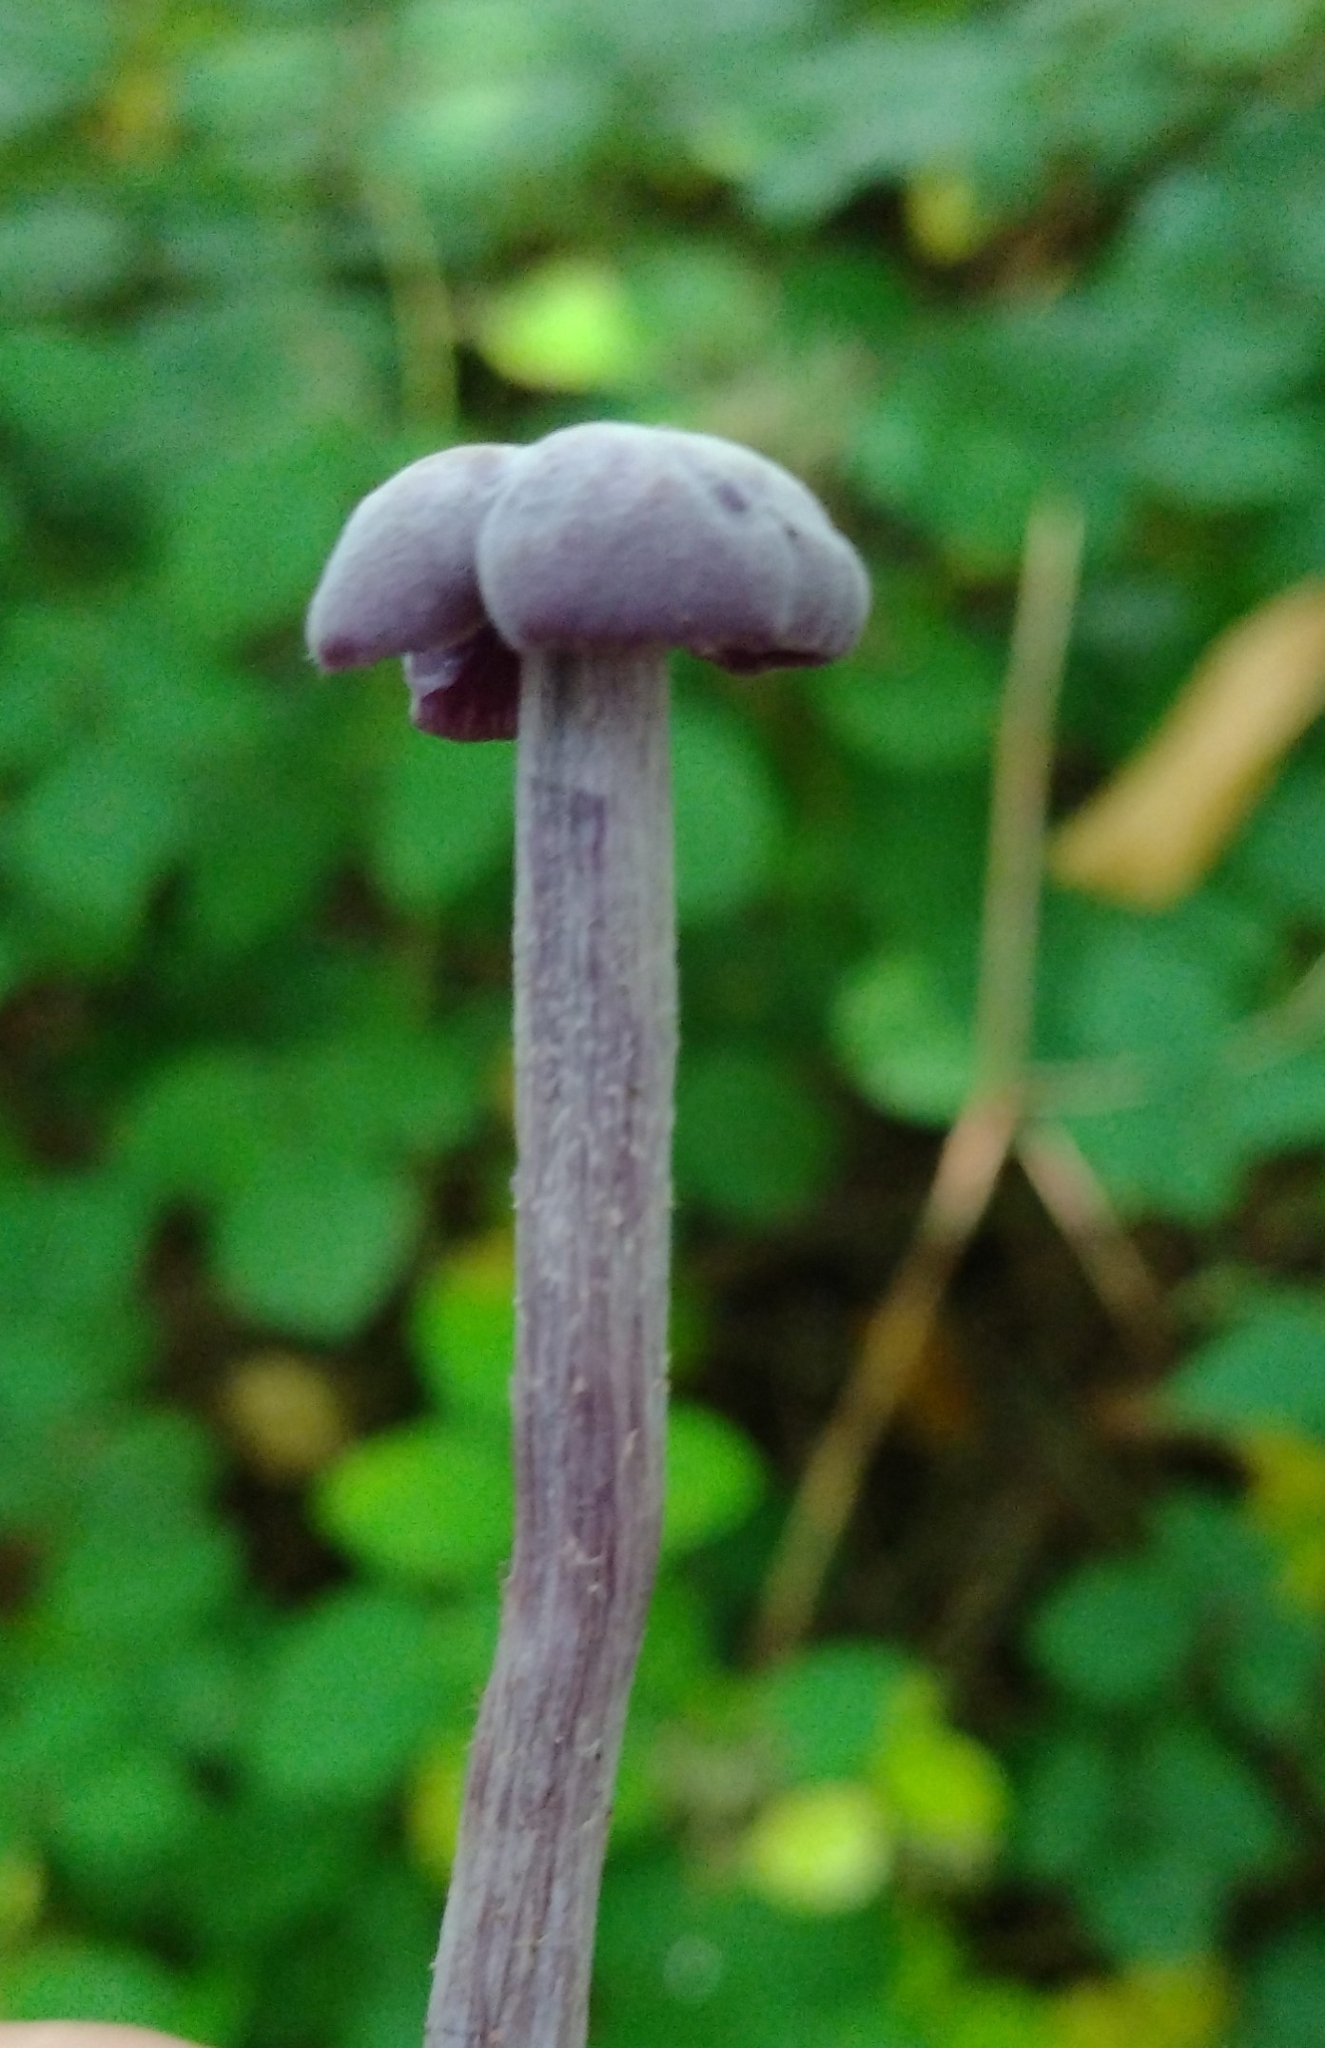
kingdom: Fungi
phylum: Basidiomycota
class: Agaricomycetes
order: Agaricales
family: Hydnangiaceae
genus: Laccaria
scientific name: Laccaria amethystina
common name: Amethyst deceiver
